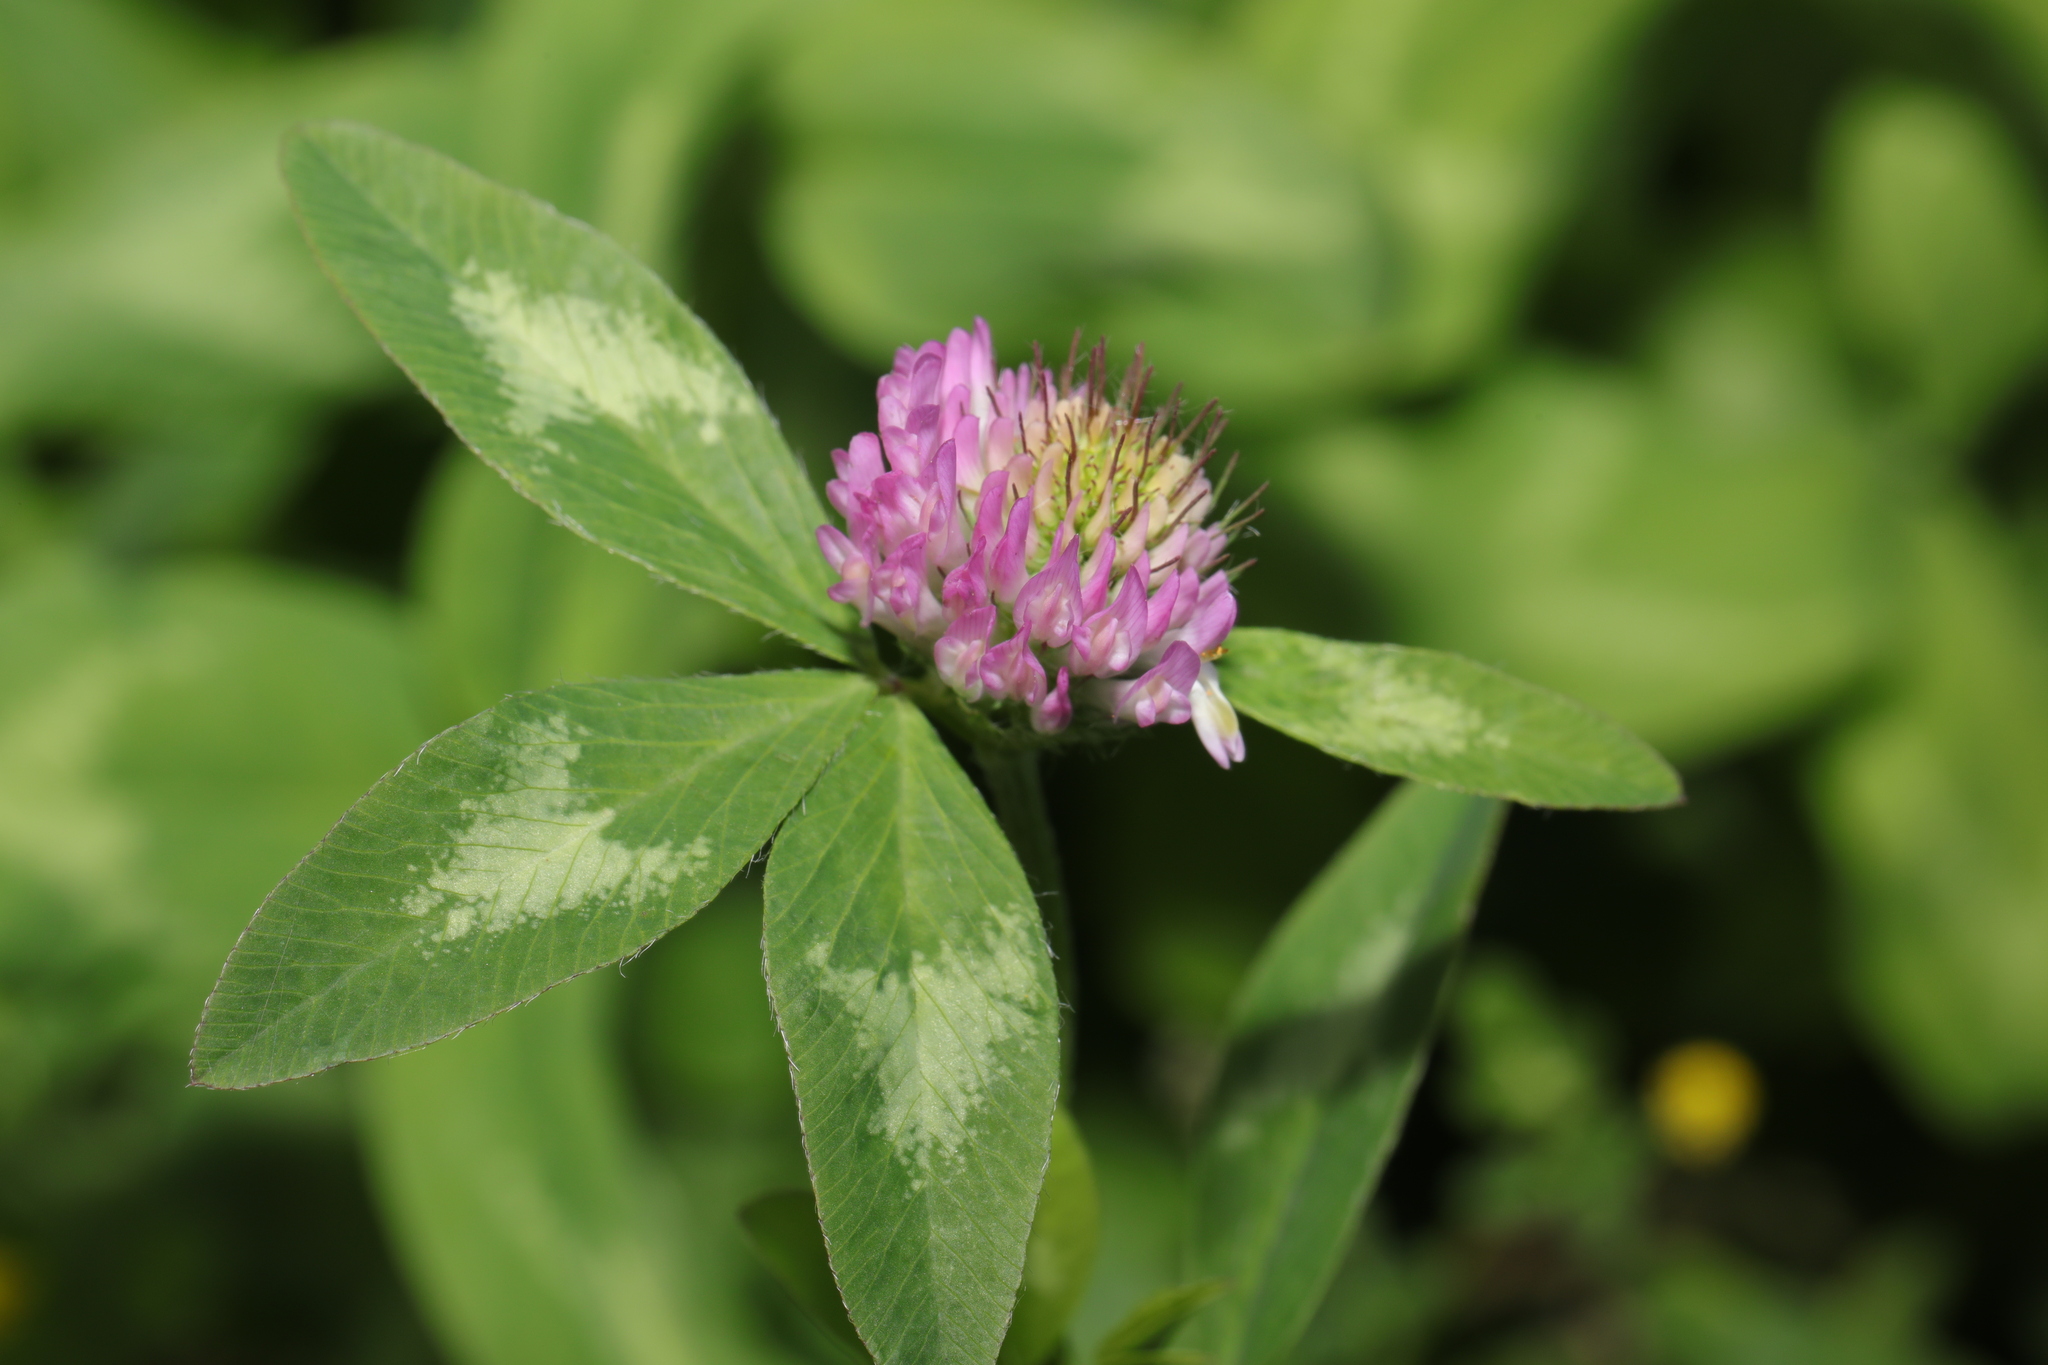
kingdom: Plantae
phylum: Tracheophyta
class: Magnoliopsida
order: Fabales
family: Fabaceae
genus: Trifolium
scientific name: Trifolium pratense
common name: Red clover
